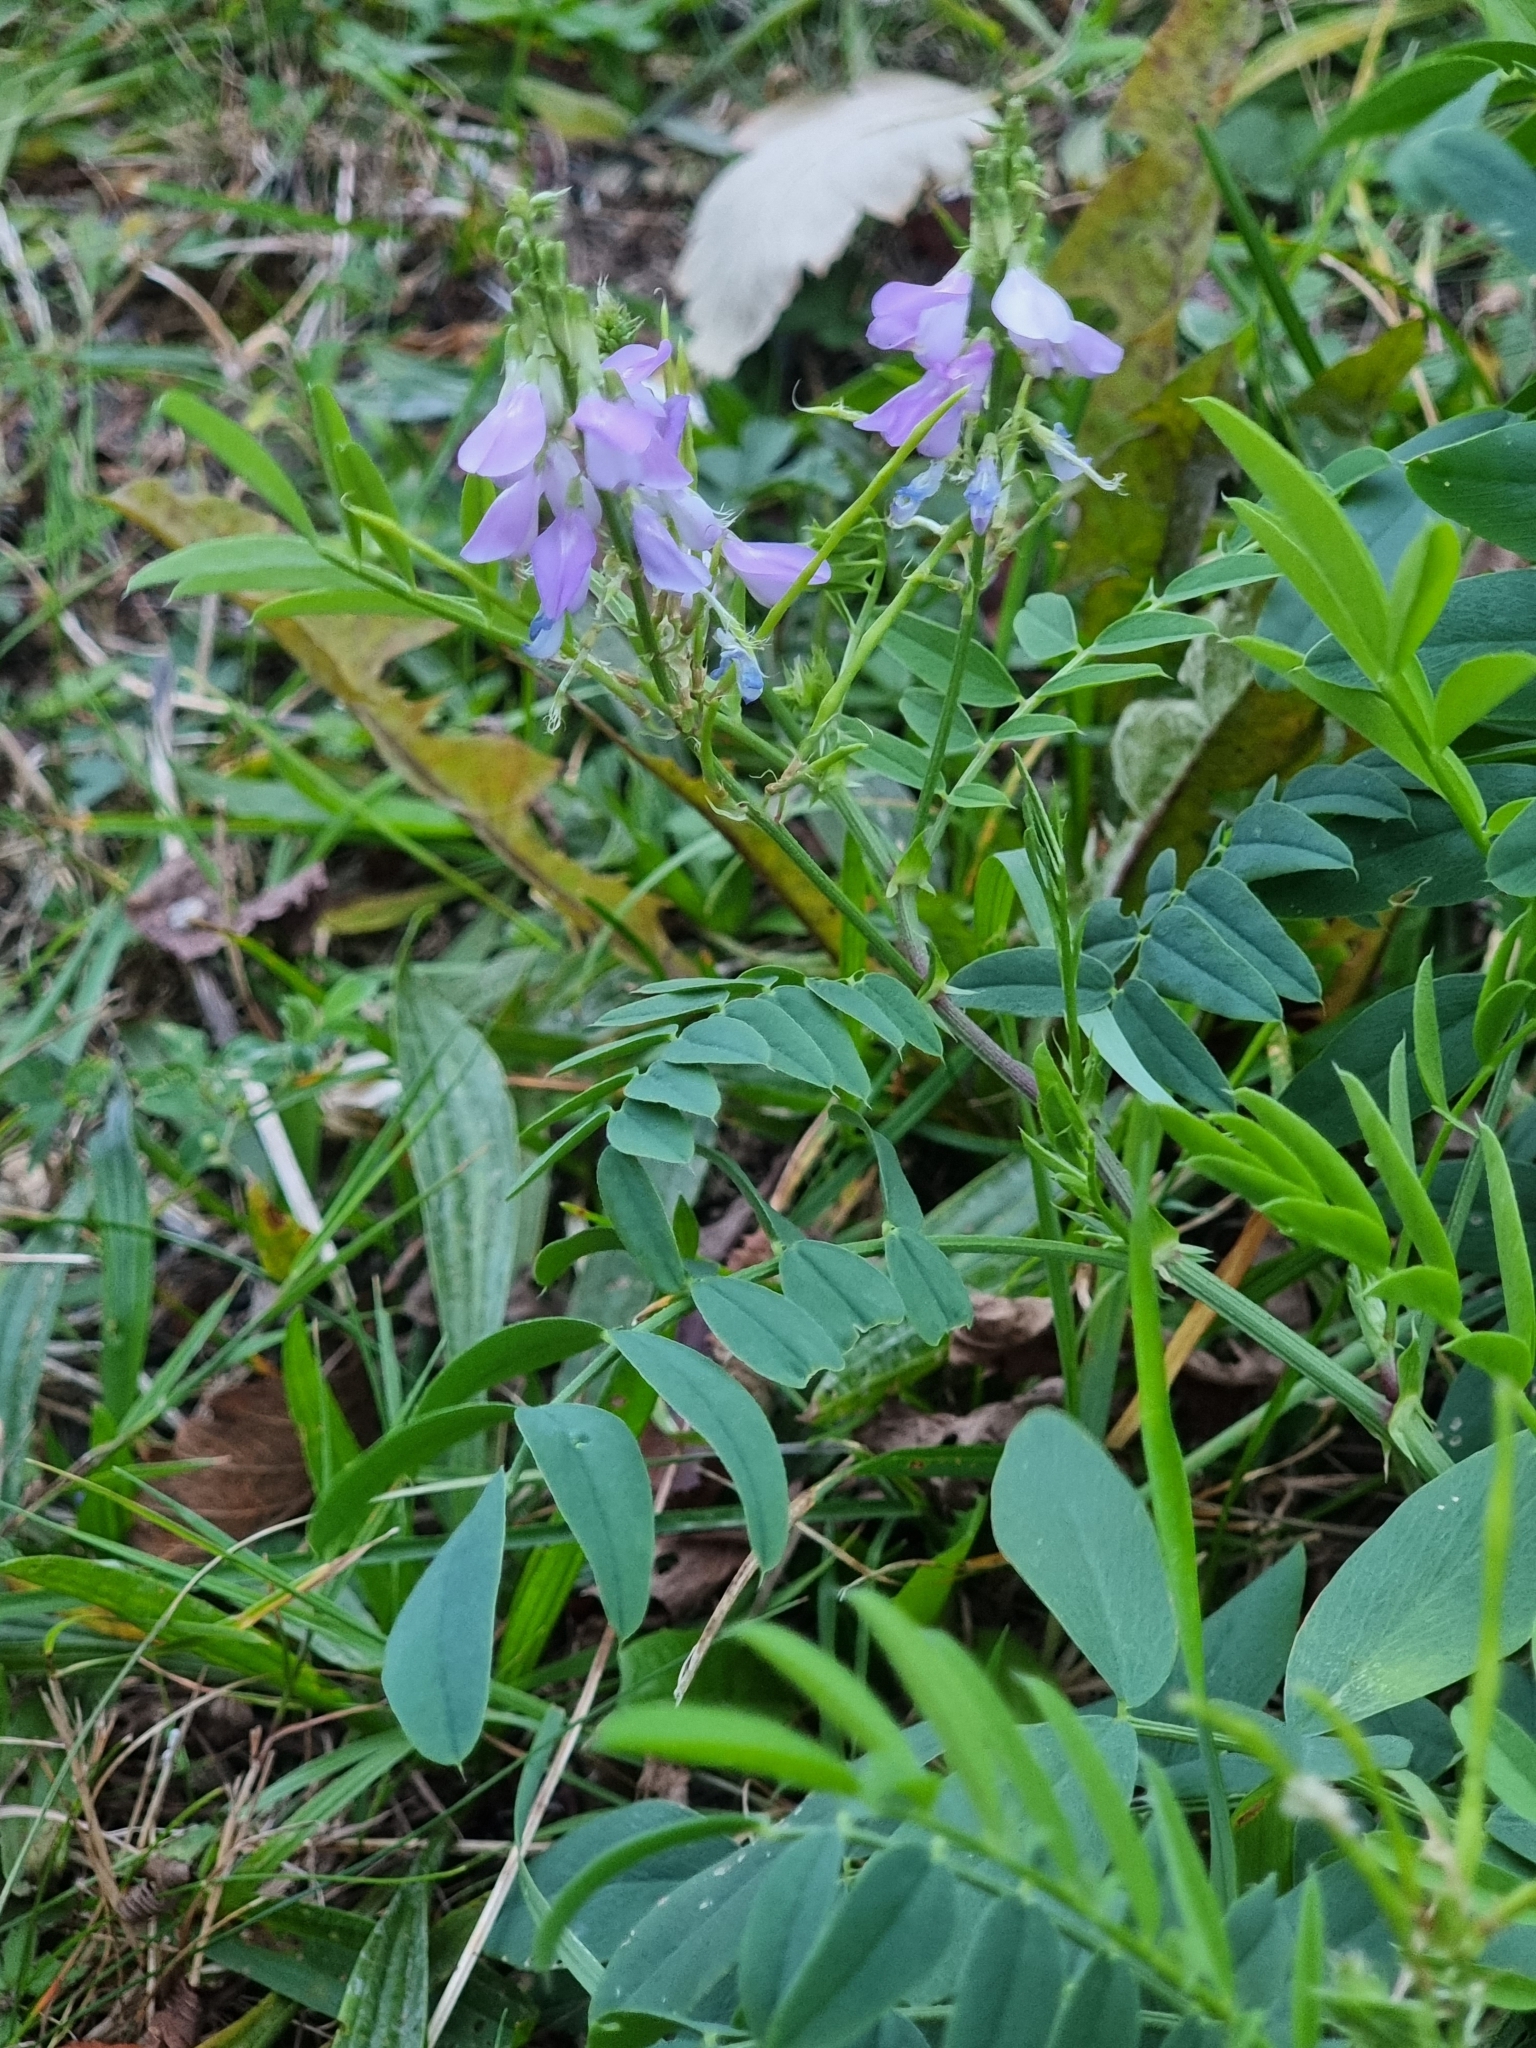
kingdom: Plantae
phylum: Tracheophyta
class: Magnoliopsida
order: Fabales
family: Fabaceae
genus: Galega
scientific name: Galega officinalis
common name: Goat's-rue
